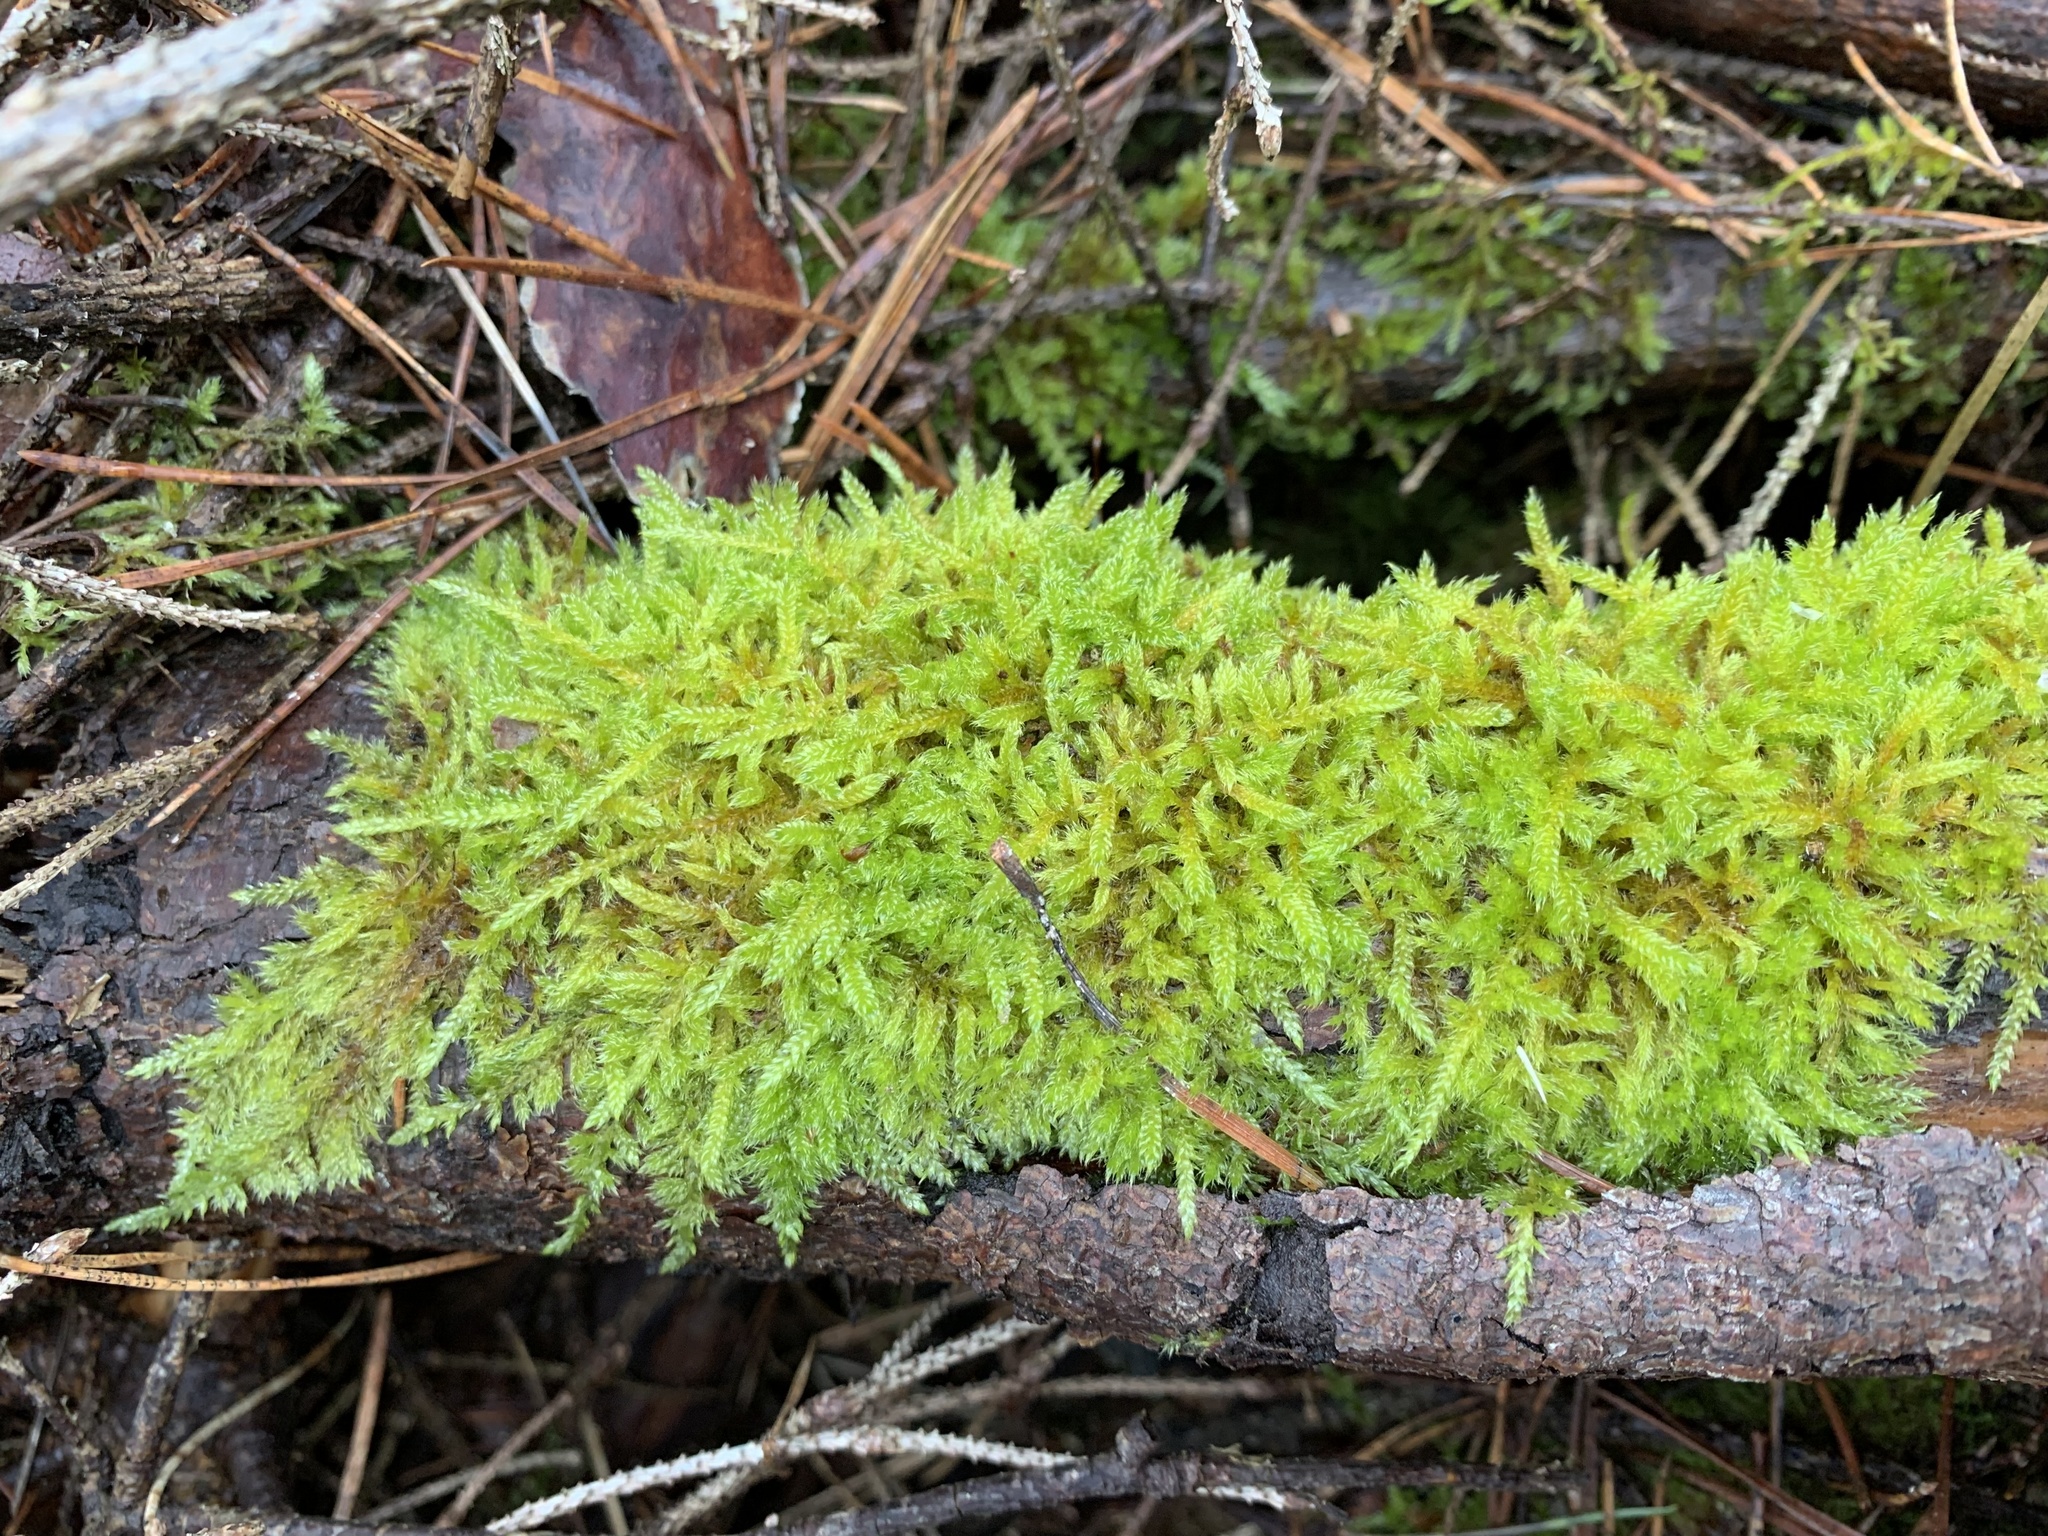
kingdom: Plantae
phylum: Bryophyta
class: Bryopsida
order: Hypnales
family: Hypnaceae
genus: Hypnum
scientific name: Hypnum cupressiforme
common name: Cypress-leaved plait-moss
